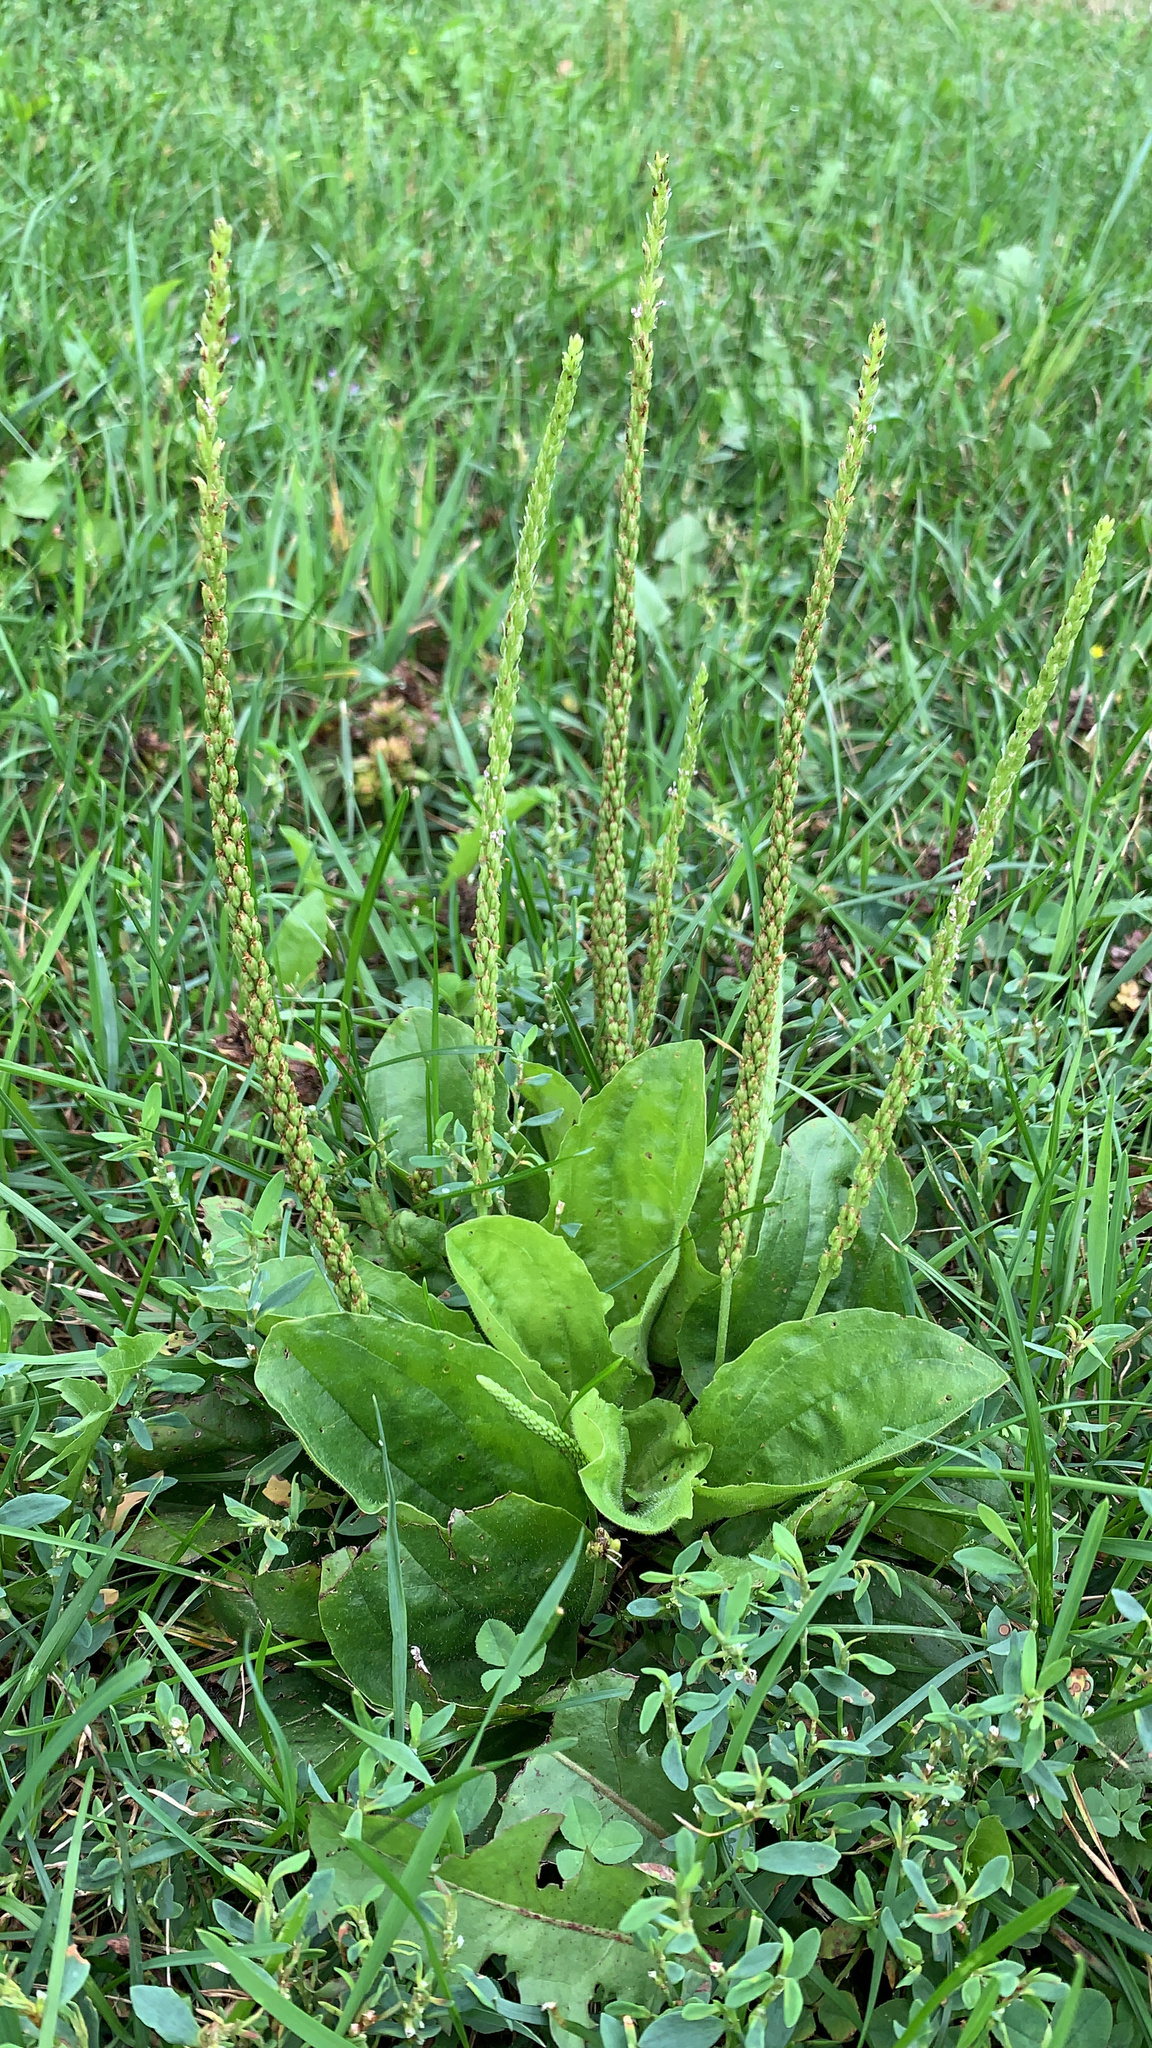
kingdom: Plantae
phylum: Tracheophyta
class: Magnoliopsida
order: Lamiales
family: Plantaginaceae
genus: Plantago
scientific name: Plantago rugelii
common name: American plantain
